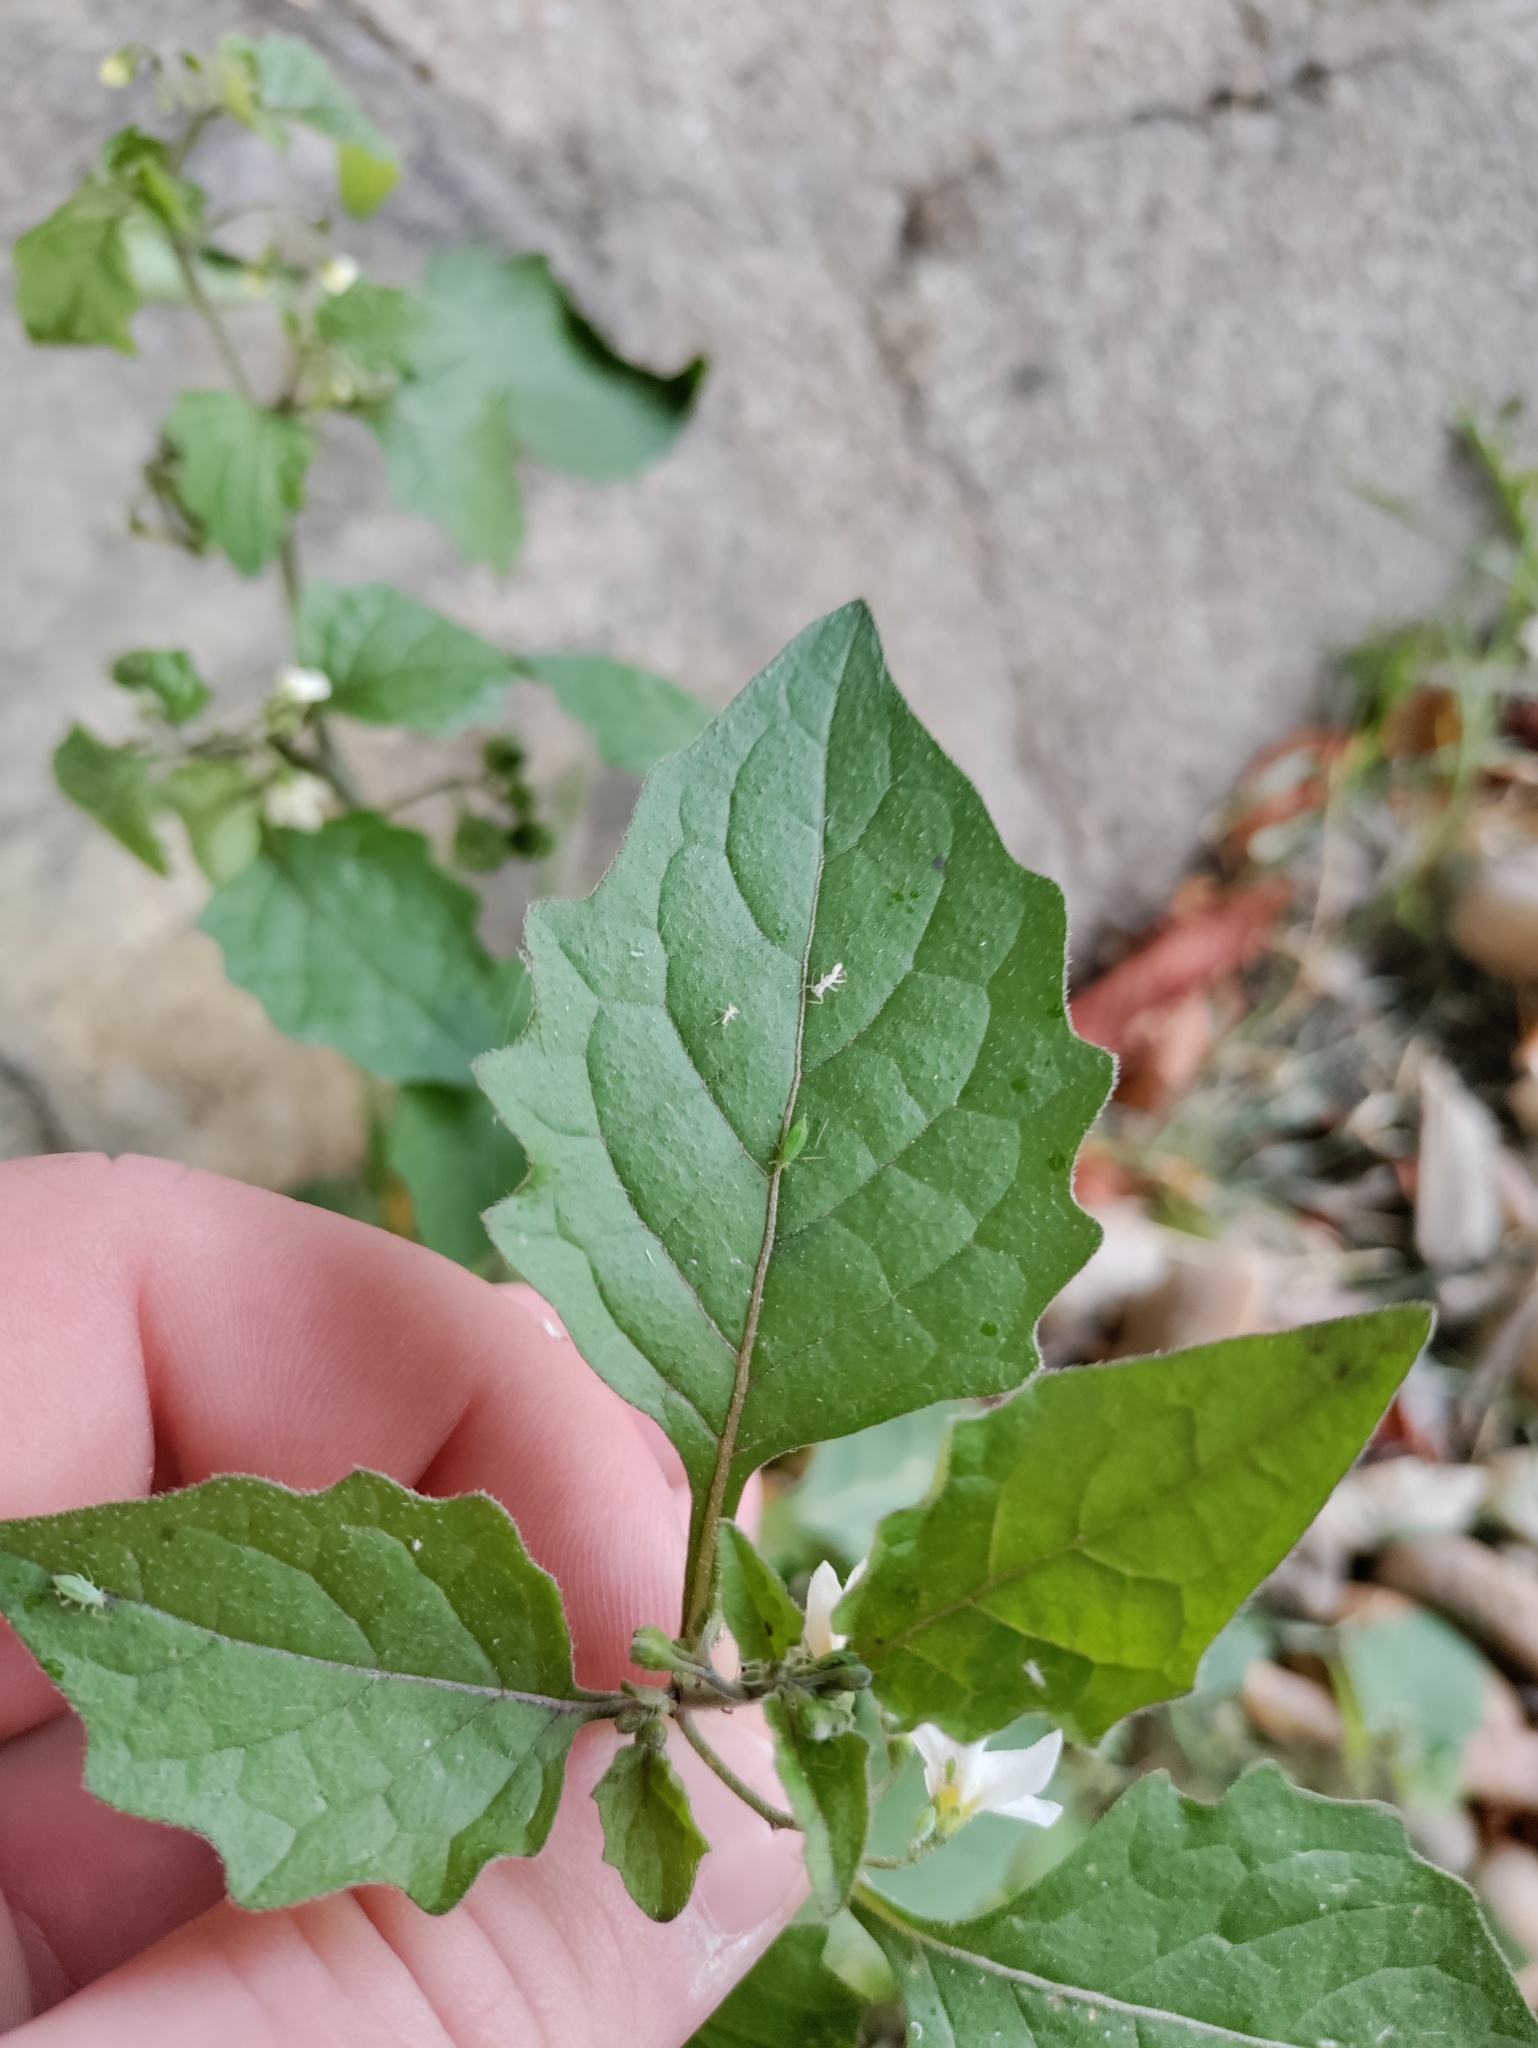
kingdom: Plantae
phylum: Tracheophyta
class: Magnoliopsida
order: Solanales
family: Solanaceae
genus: Solanum
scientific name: Solanum nigrum
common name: Black nightshade
